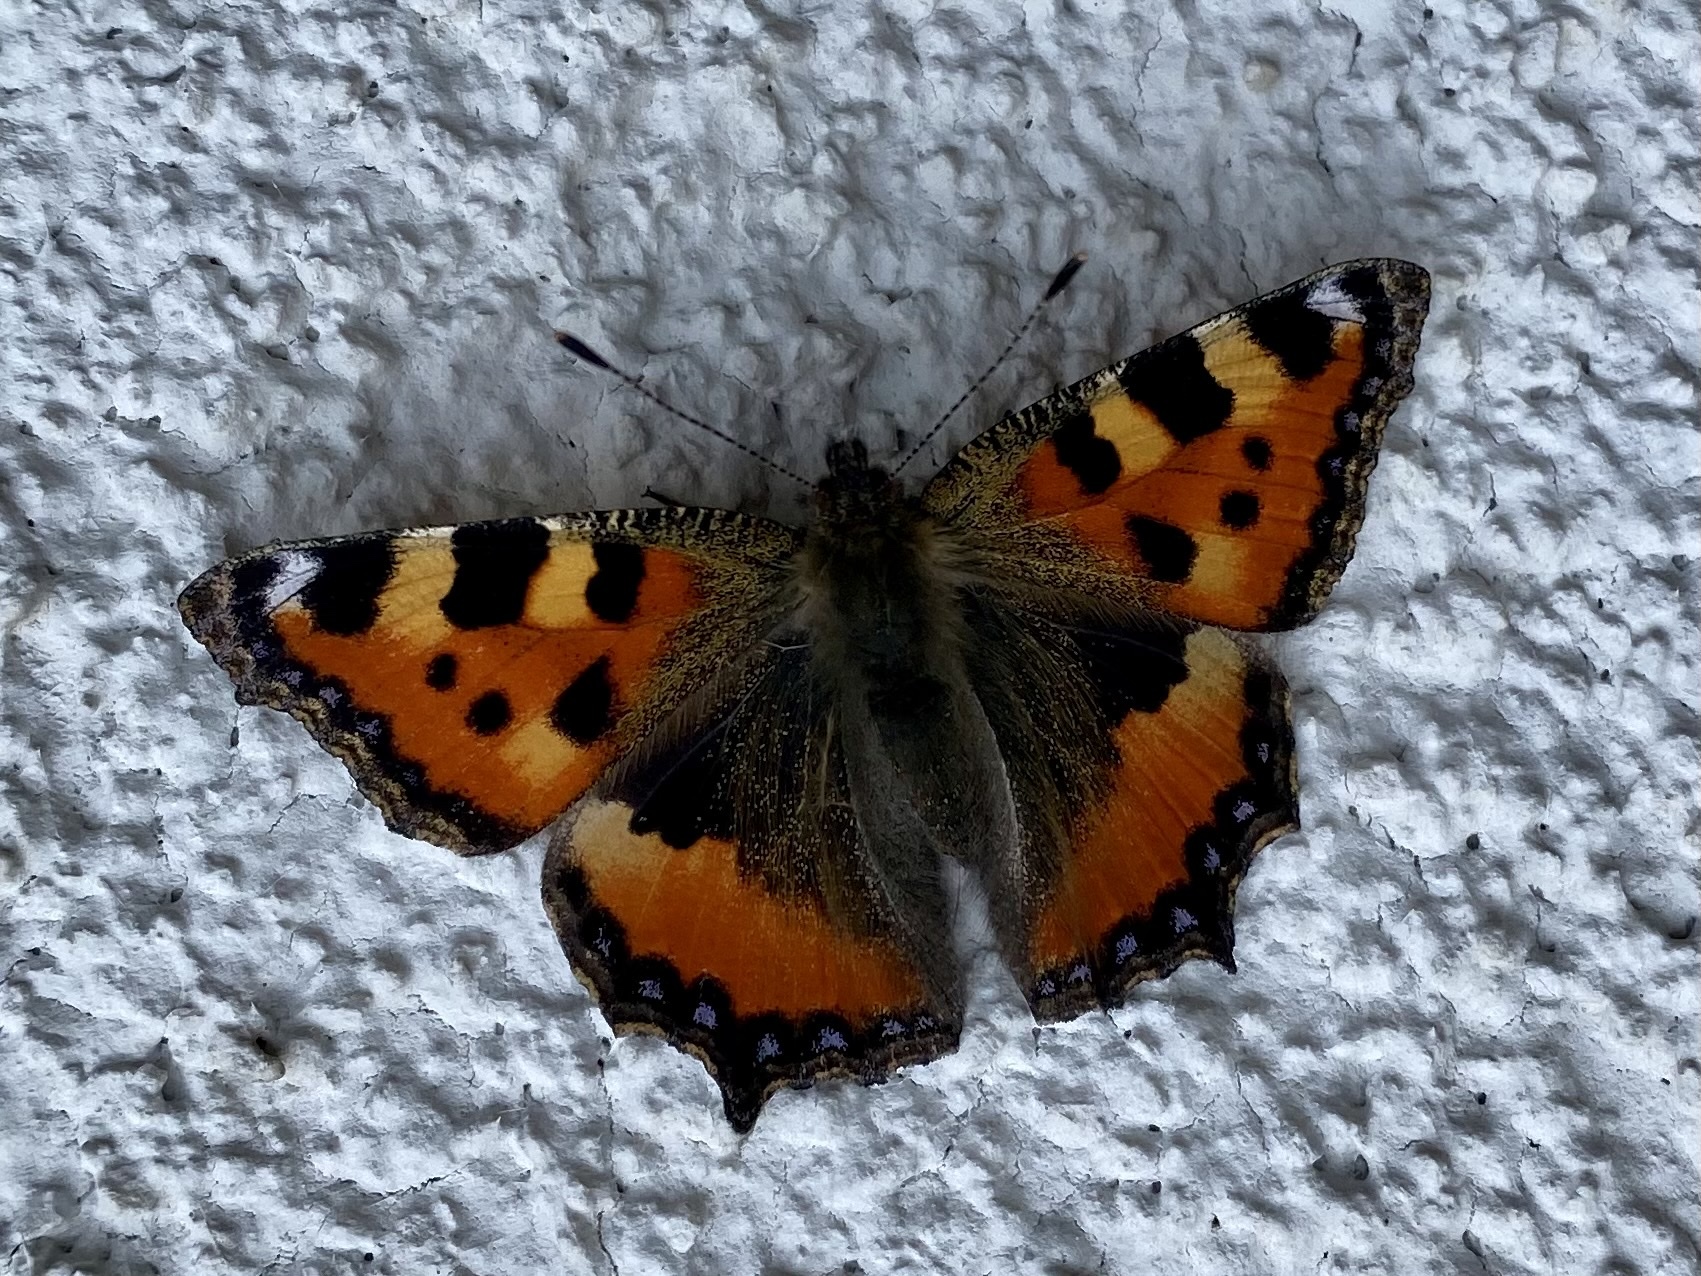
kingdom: Animalia
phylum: Arthropoda
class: Insecta
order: Lepidoptera
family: Nymphalidae
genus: Aglais
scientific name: Aglais urticae
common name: Small tortoiseshell
